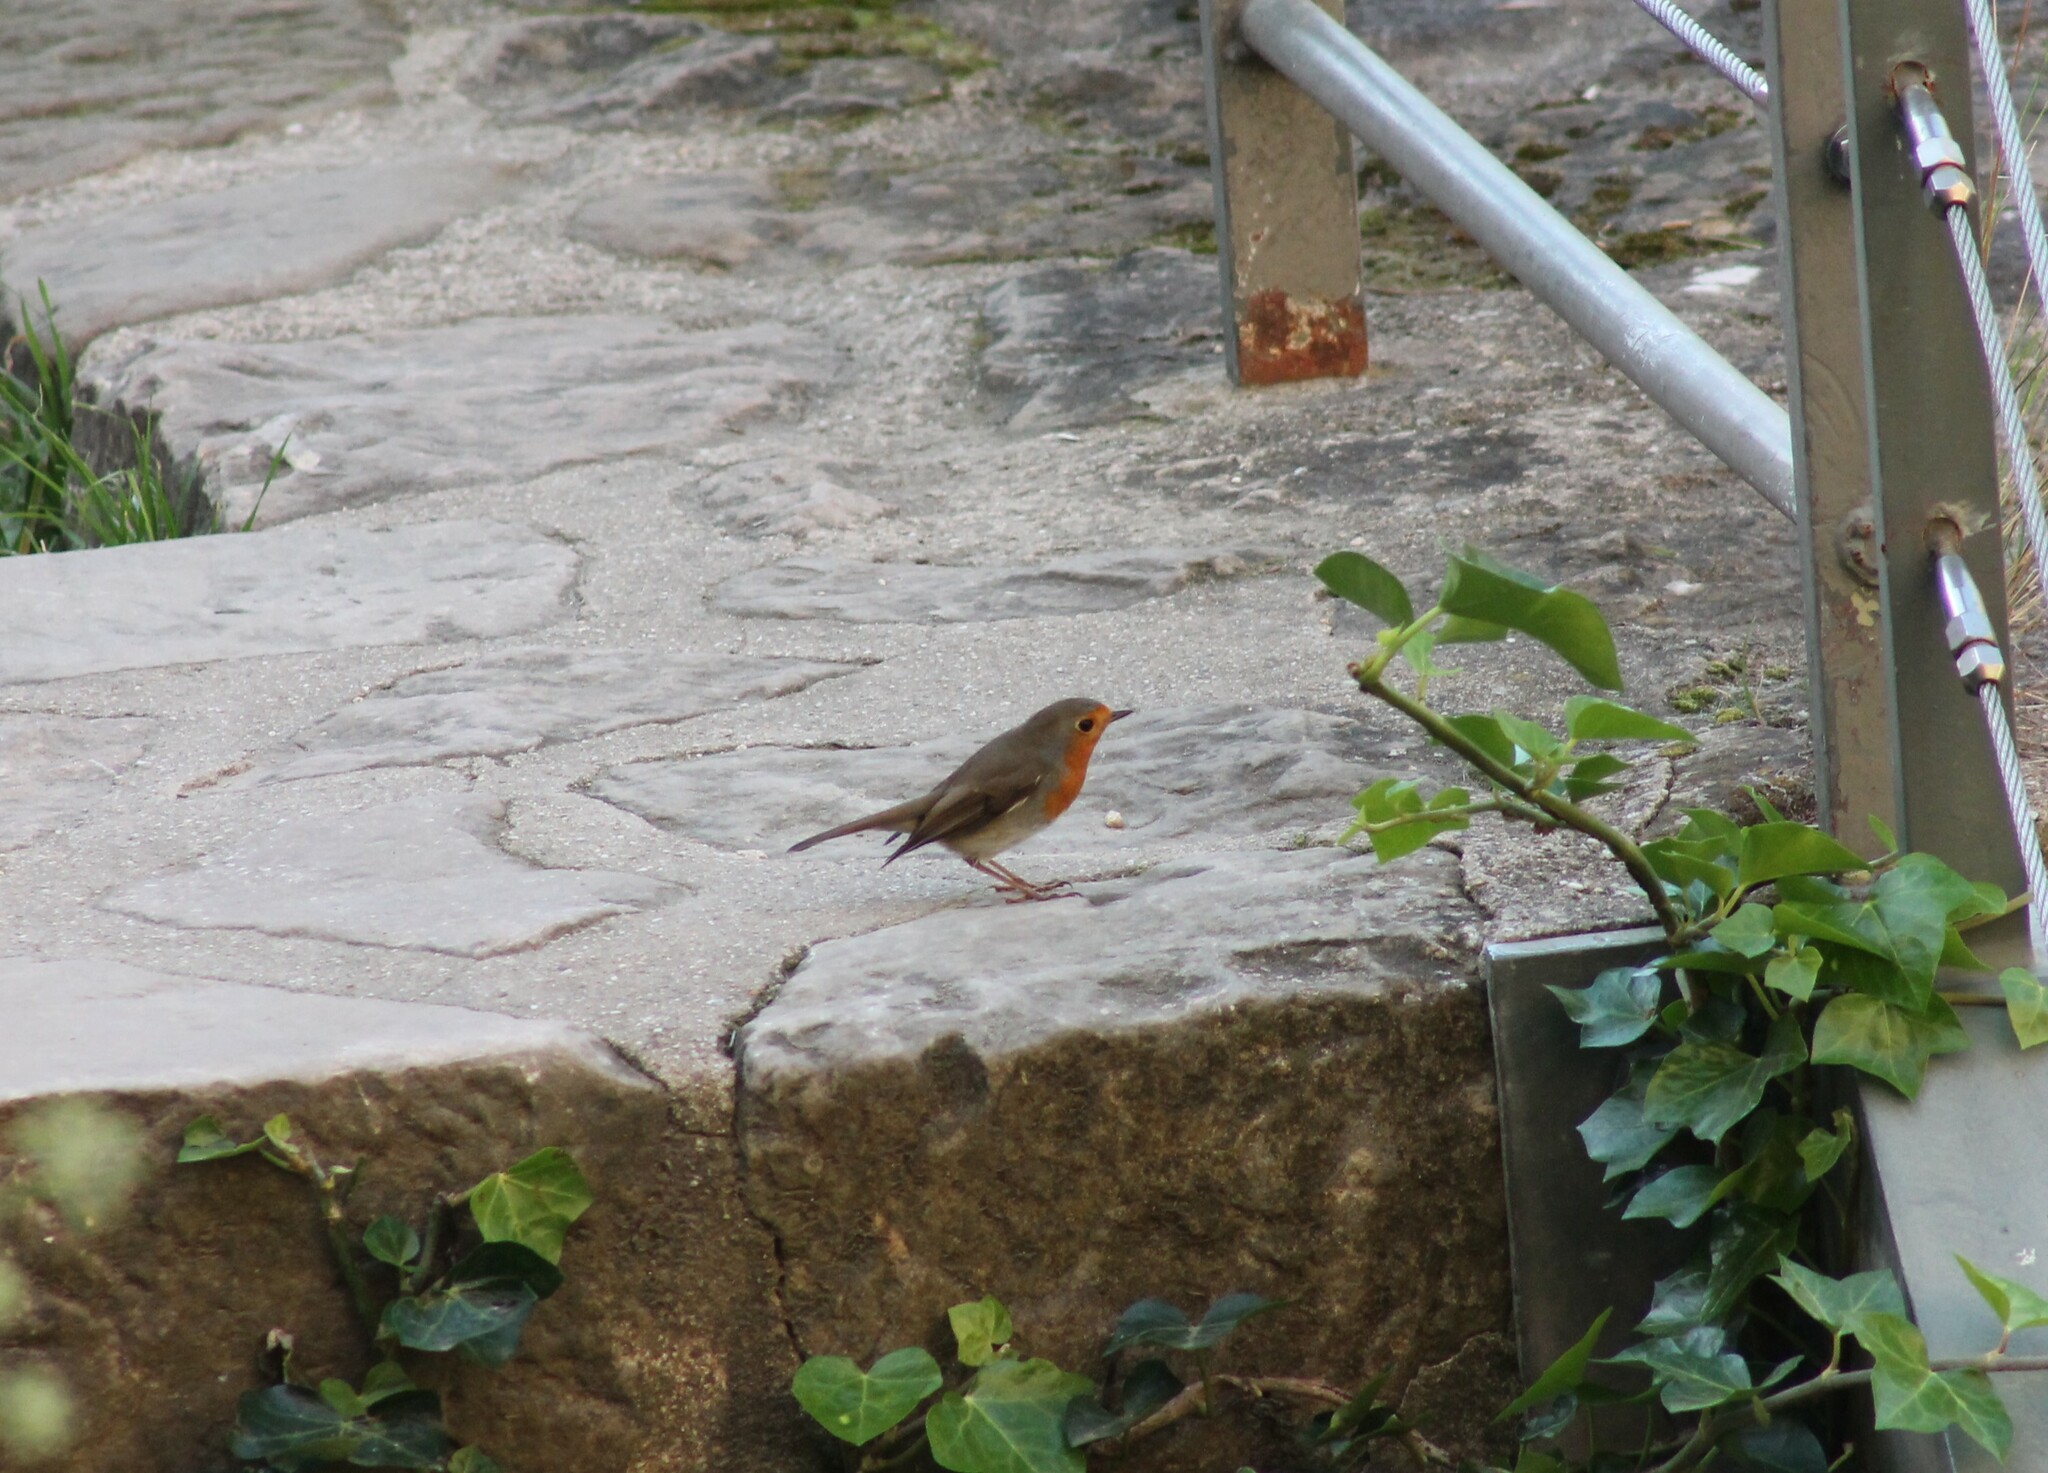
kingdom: Animalia
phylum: Chordata
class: Aves
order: Passeriformes
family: Muscicapidae
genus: Erithacus
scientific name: Erithacus rubecula
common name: European robin
